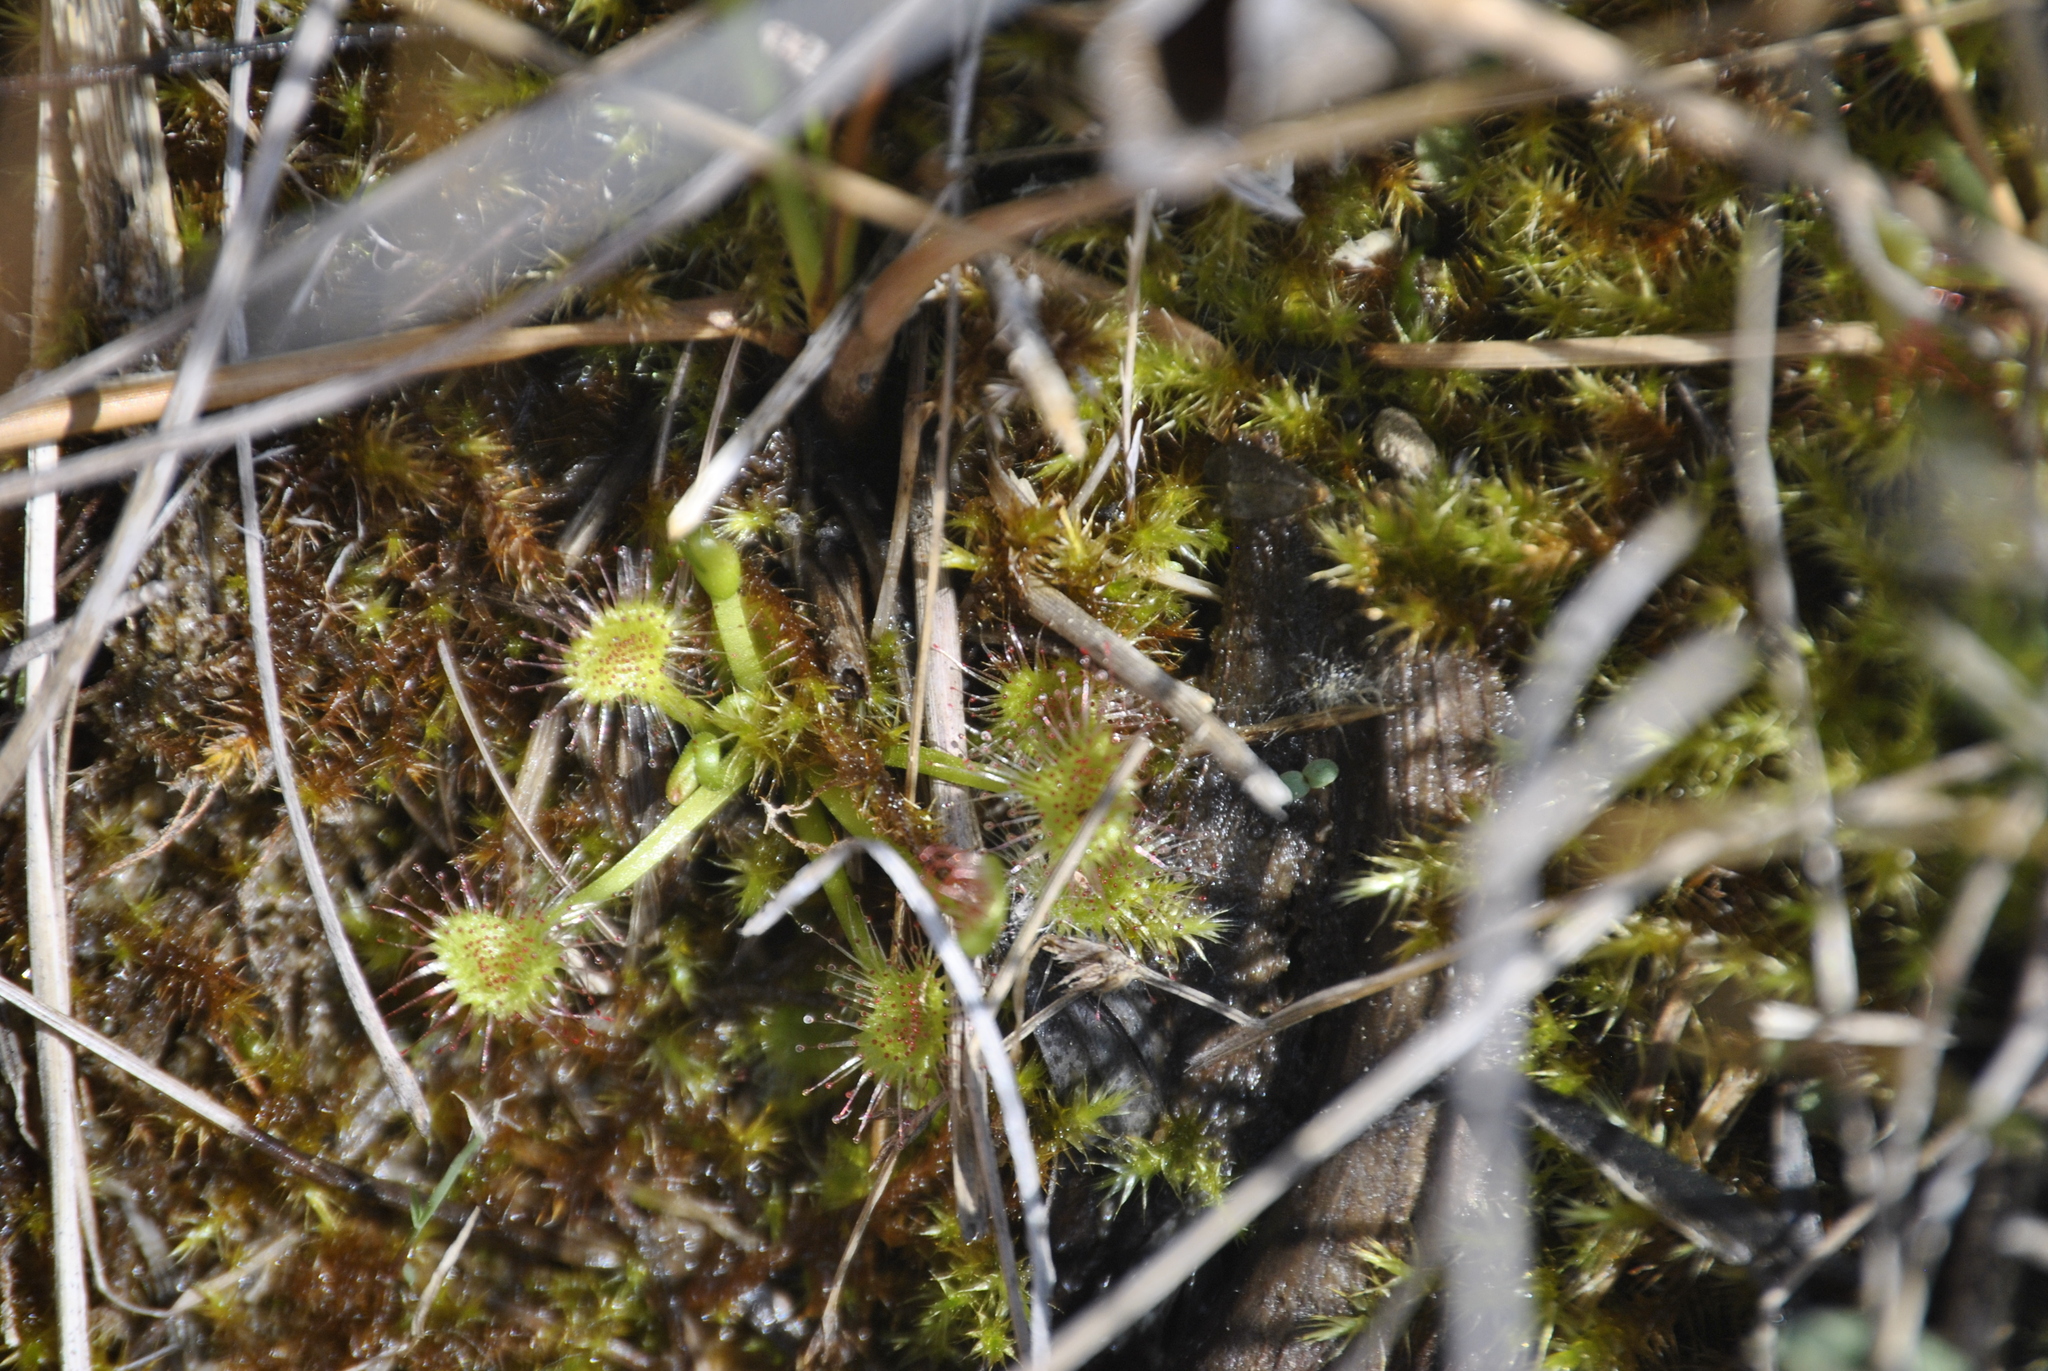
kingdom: Plantae
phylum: Tracheophyta
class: Magnoliopsida
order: Caryophyllales
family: Droseraceae
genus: Drosera
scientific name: Drosera rotundifolia
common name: Round-leaved sundew
